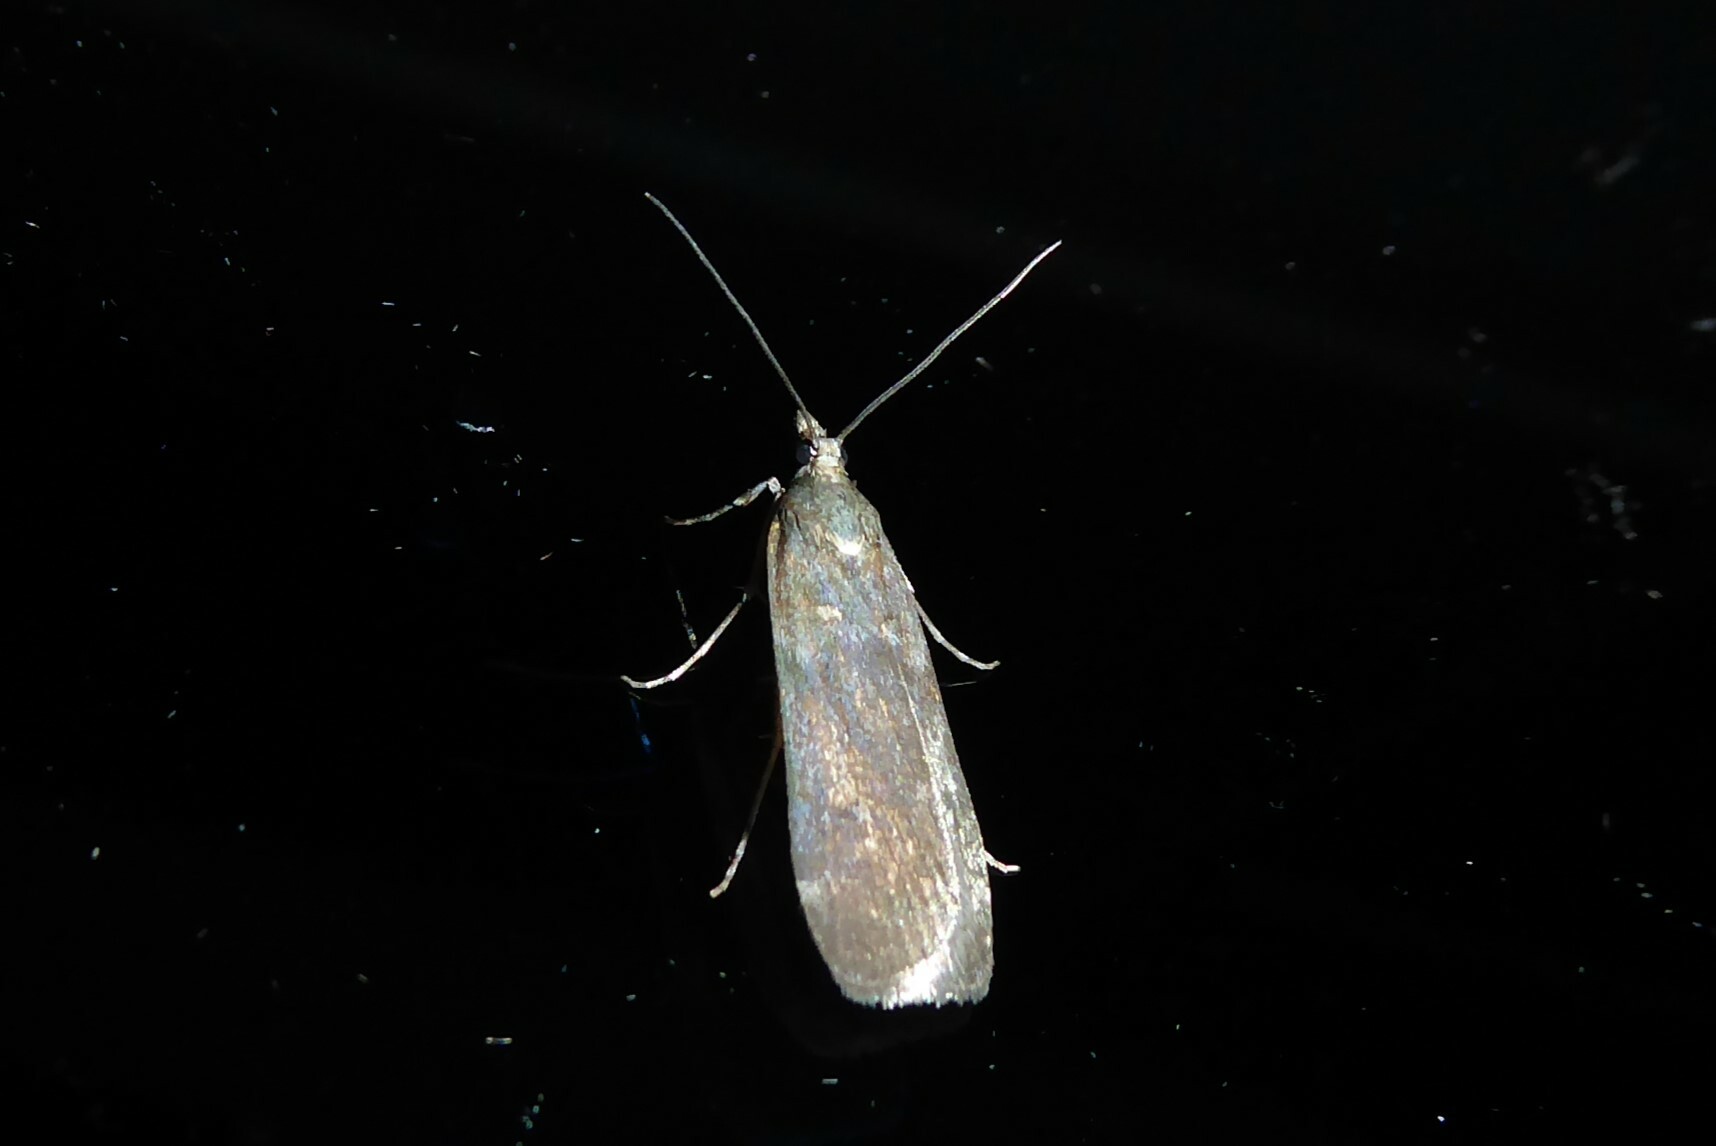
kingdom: Animalia
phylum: Arthropoda
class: Insecta
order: Lepidoptera
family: Crambidae
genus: Eudonia
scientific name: Eudonia cataxesta
